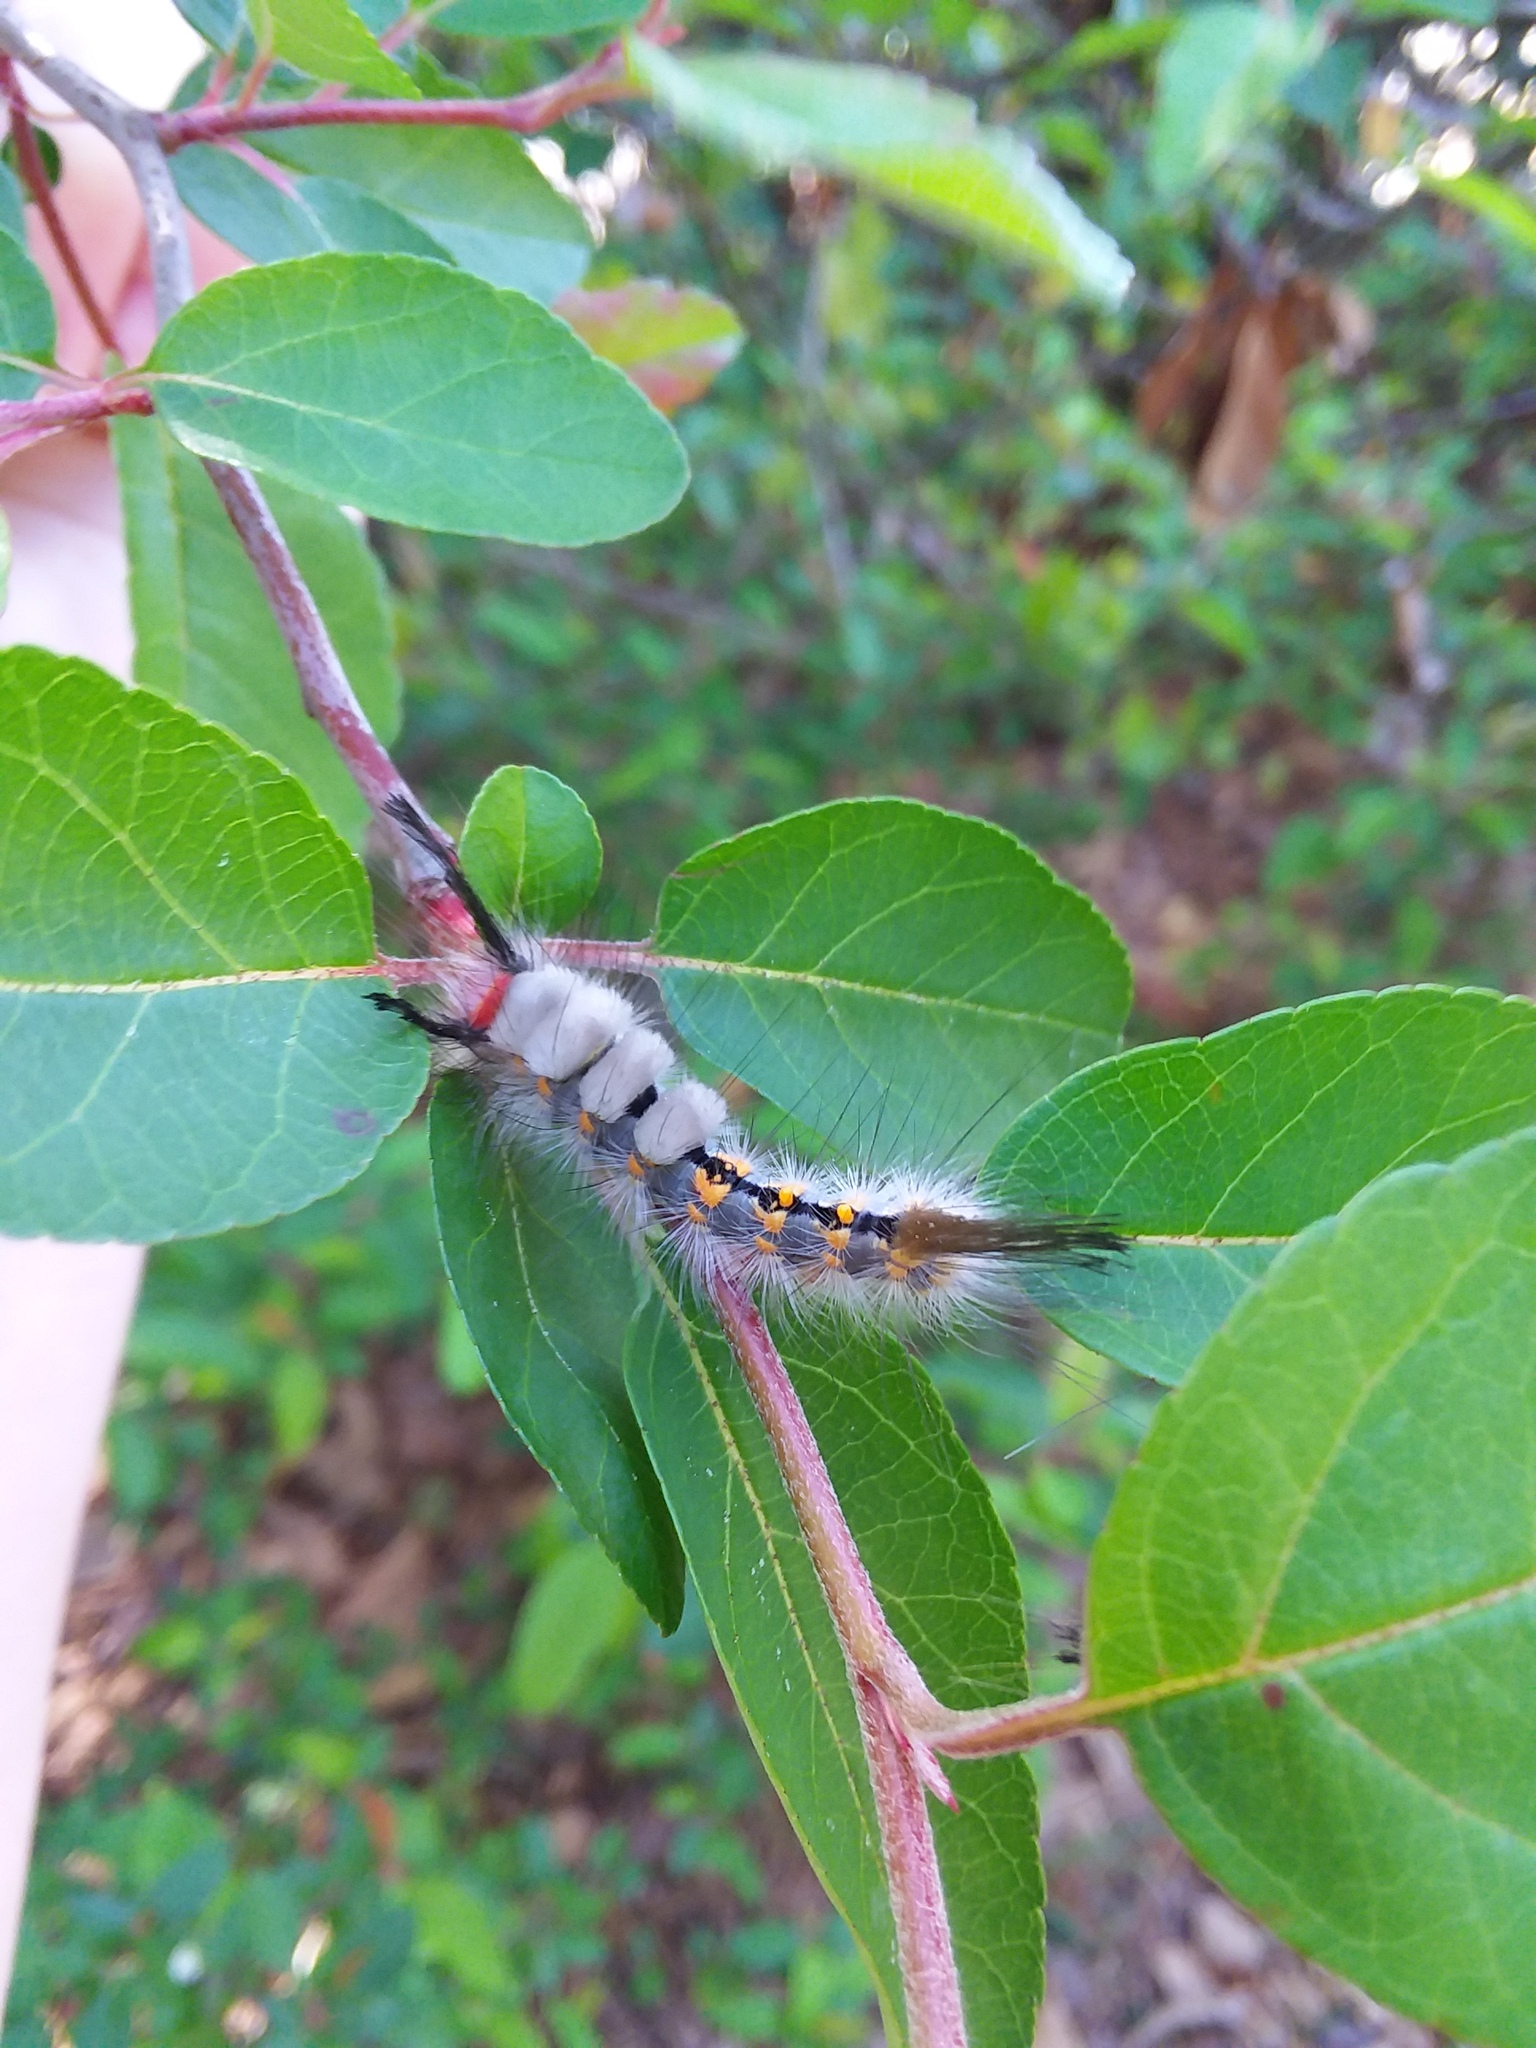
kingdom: Animalia
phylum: Arthropoda
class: Insecta
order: Lepidoptera
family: Erebidae
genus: Orgyia
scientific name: Orgyia detrita
